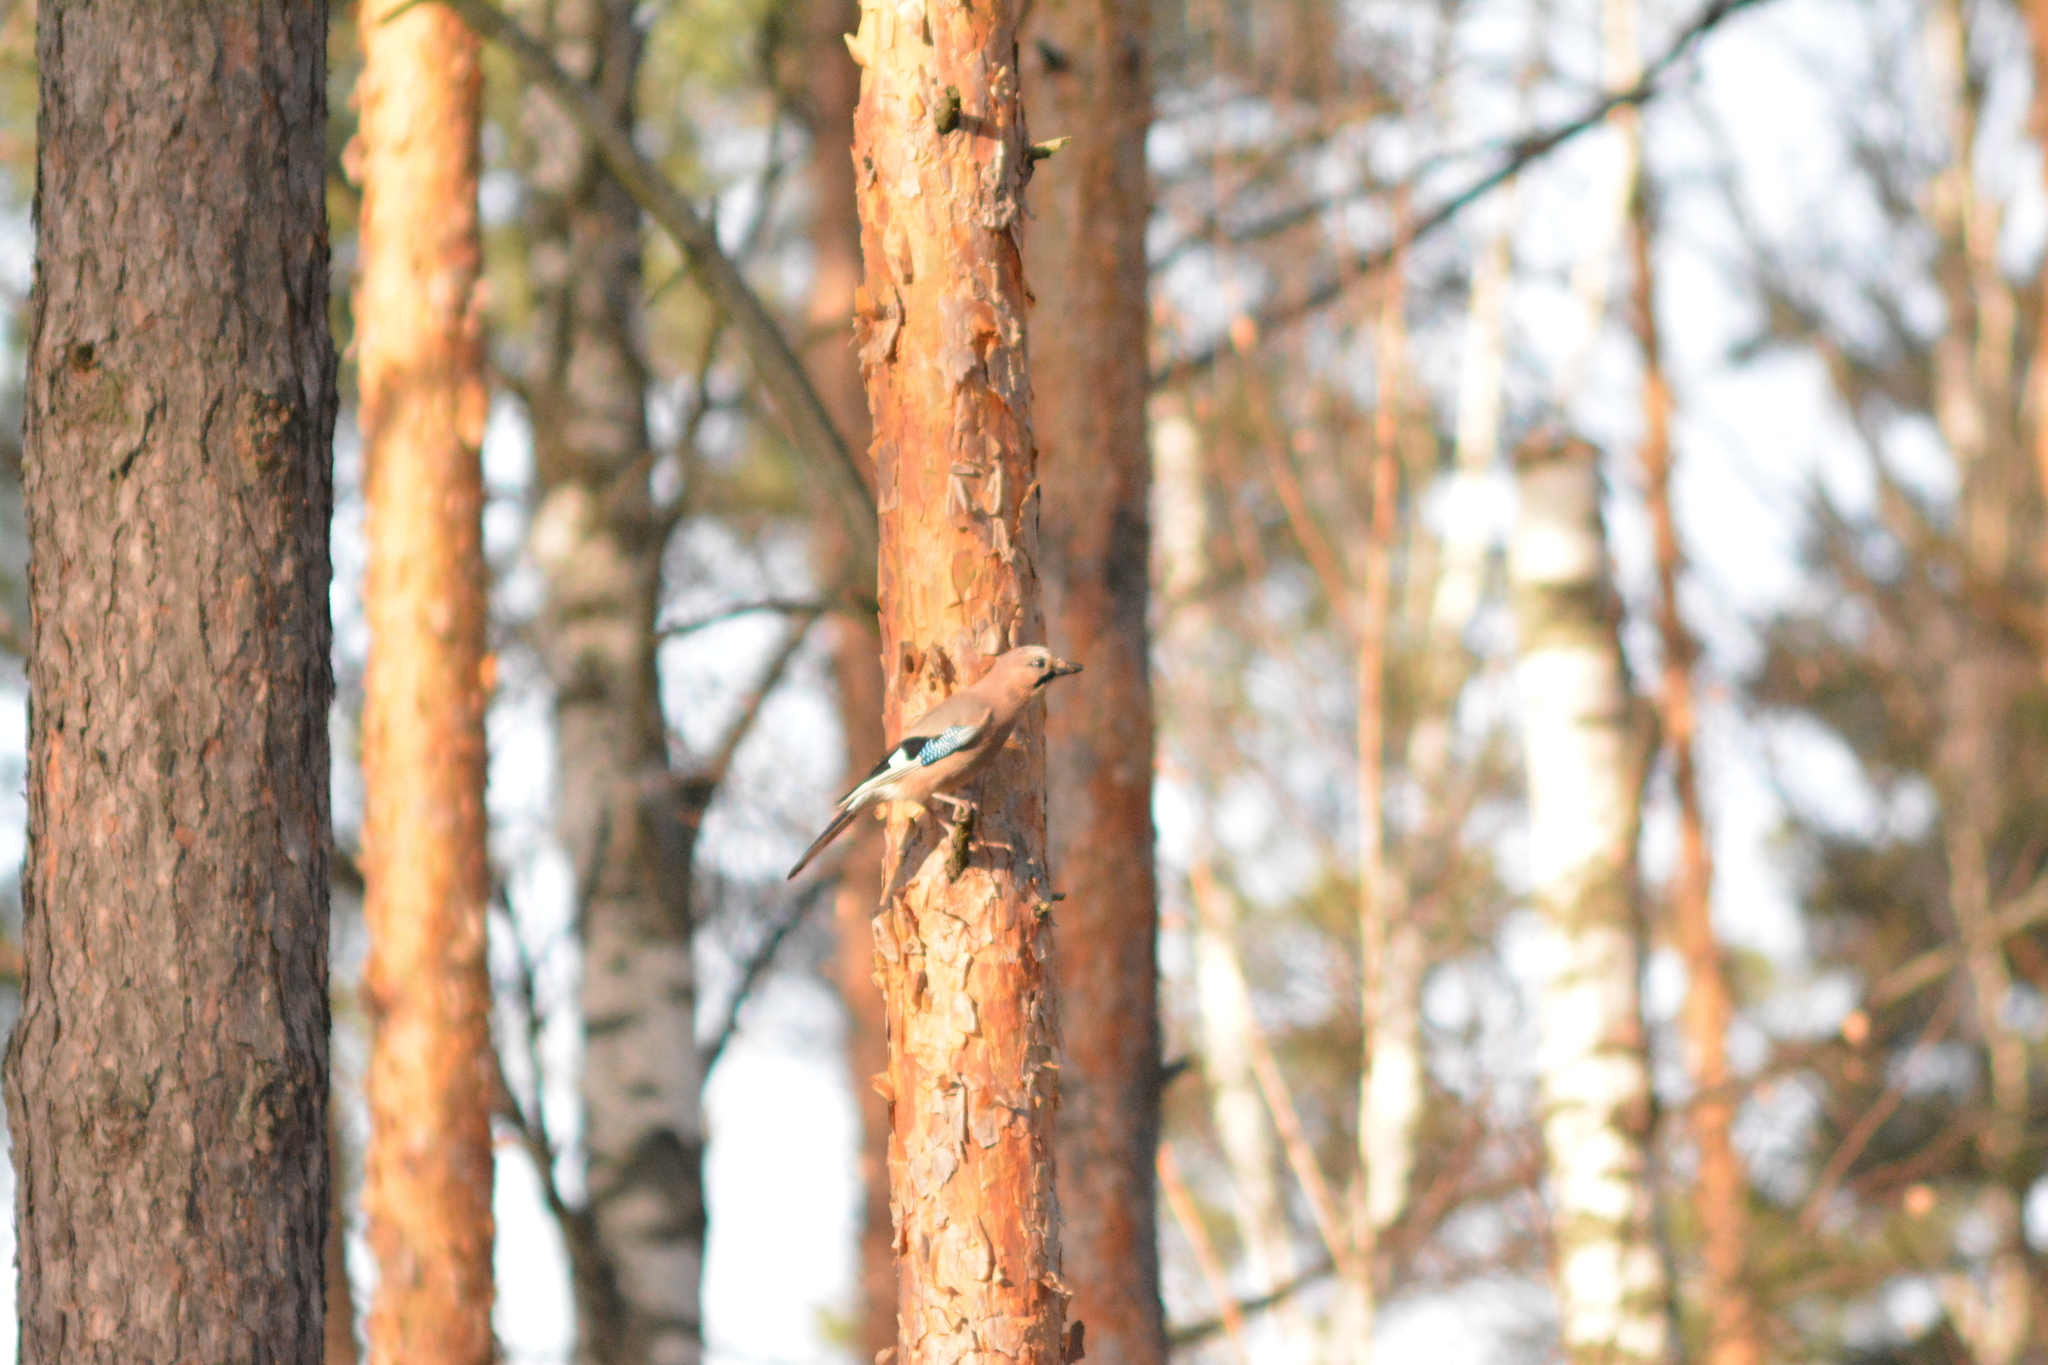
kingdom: Animalia
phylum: Chordata
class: Aves
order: Passeriformes
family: Corvidae
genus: Garrulus
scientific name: Garrulus glandarius
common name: Eurasian jay
